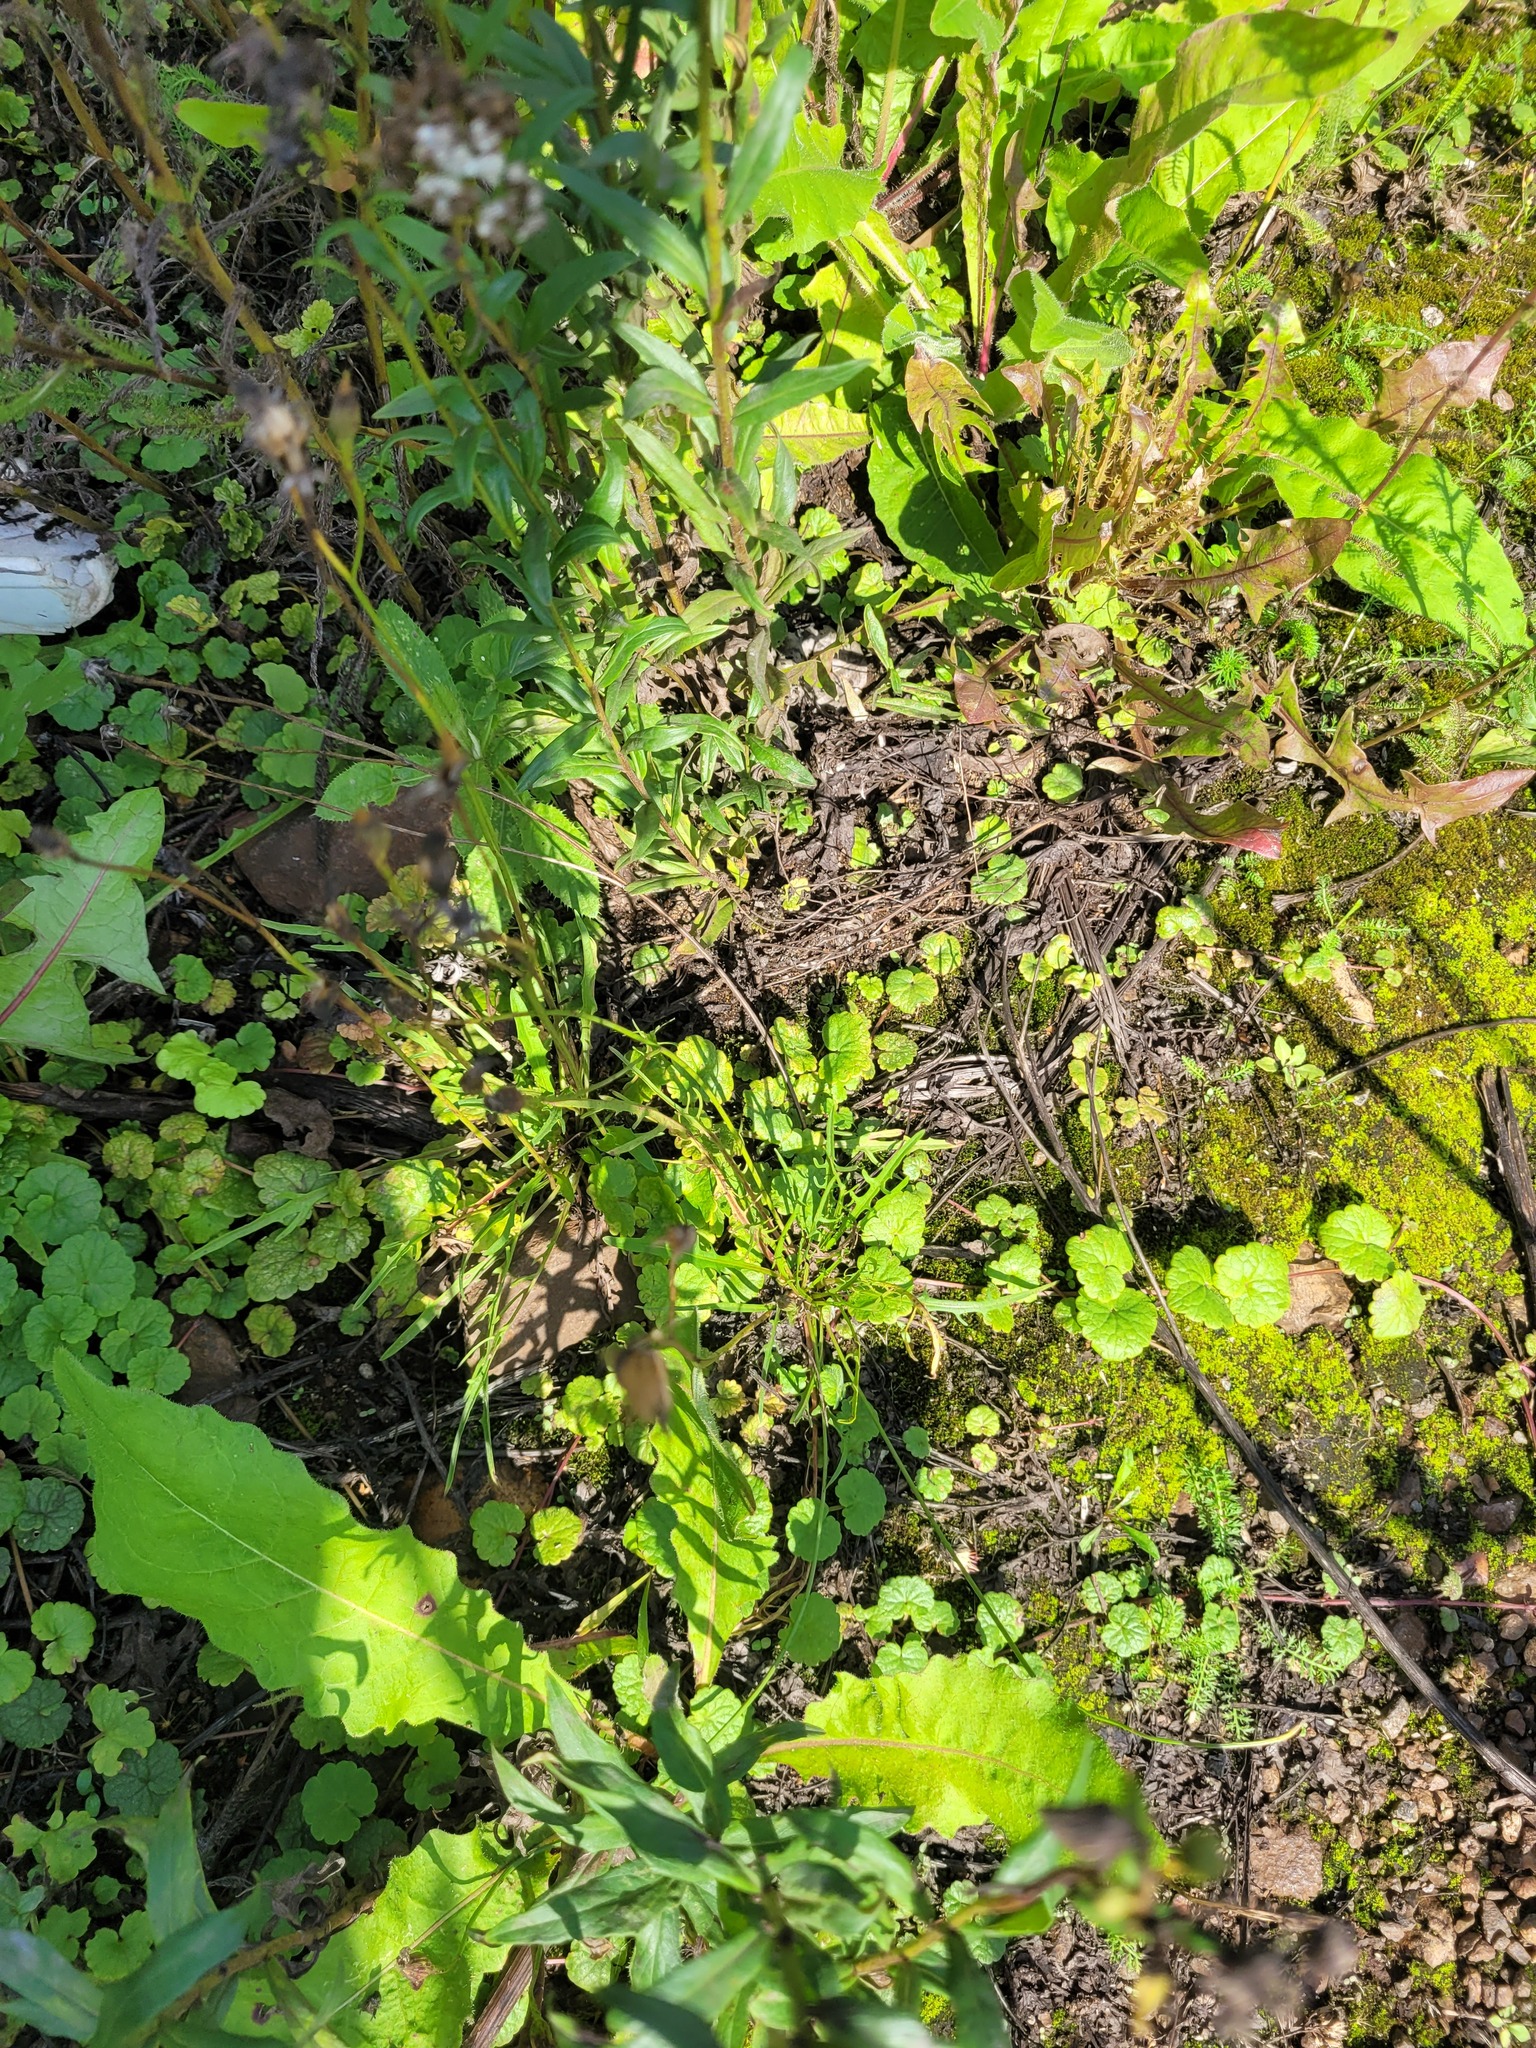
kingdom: Plantae
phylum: Tracheophyta
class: Magnoliopsida
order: Asterales
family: Asteraceae
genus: Scorzoneroides
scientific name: Scorzoneroides autumnalis
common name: Autumn hawkbit
